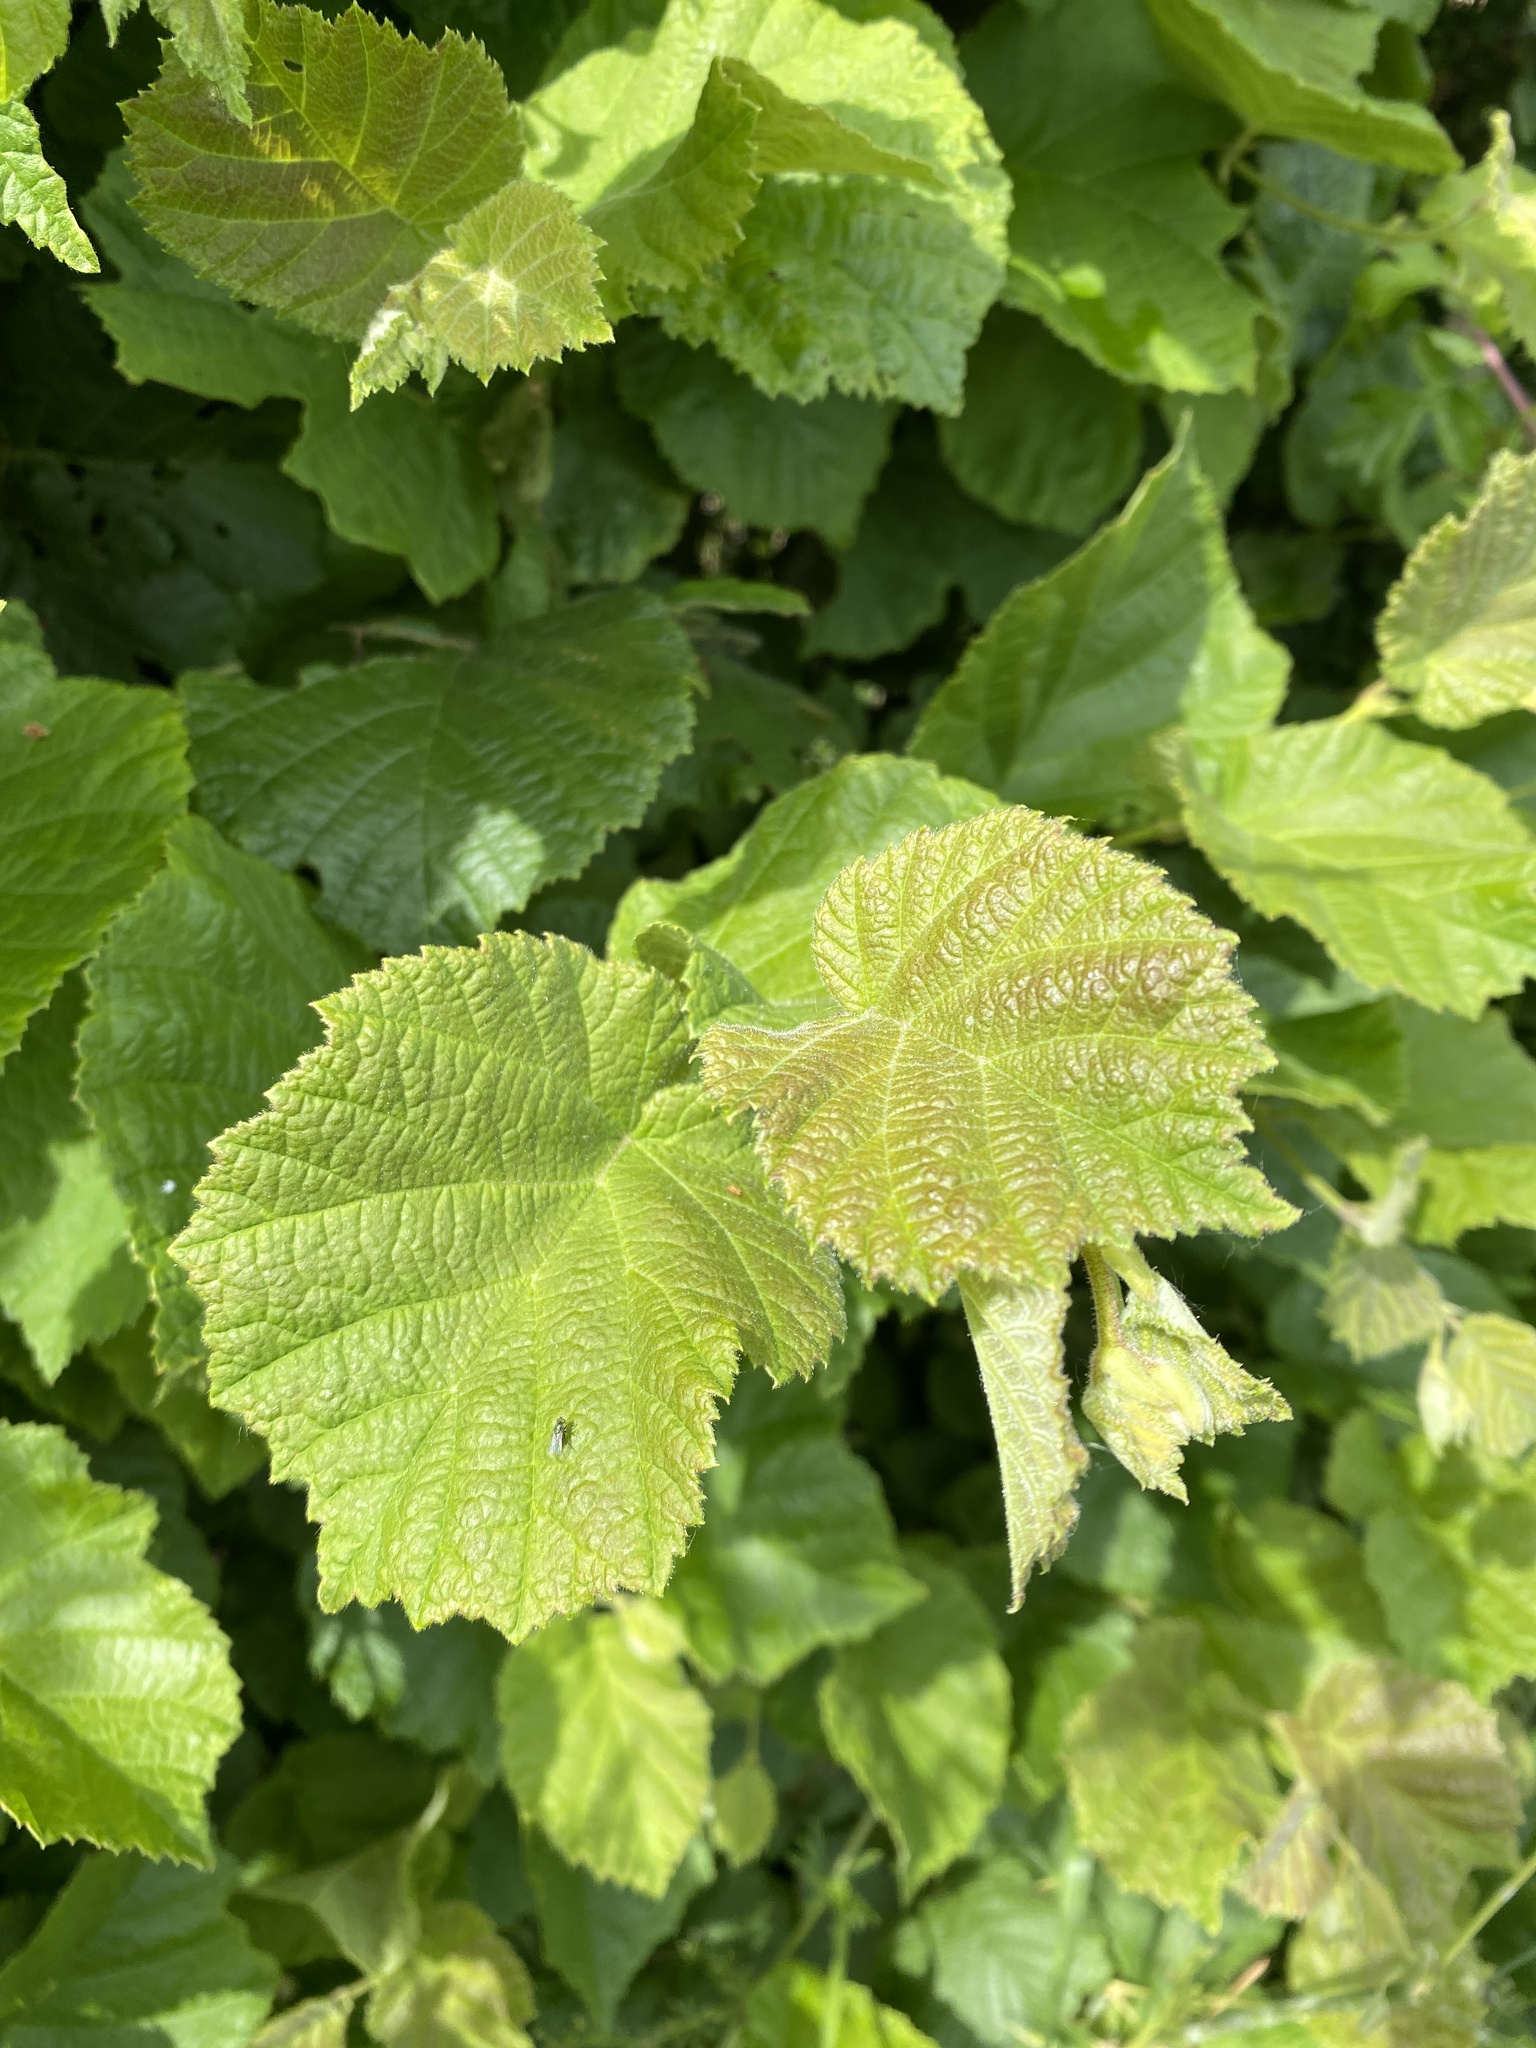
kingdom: Plantae
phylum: Tracheophyta
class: Magnoliopsida
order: Fagales
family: Betulaceae
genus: Corylus
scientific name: Corylus avellana
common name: European hazel
